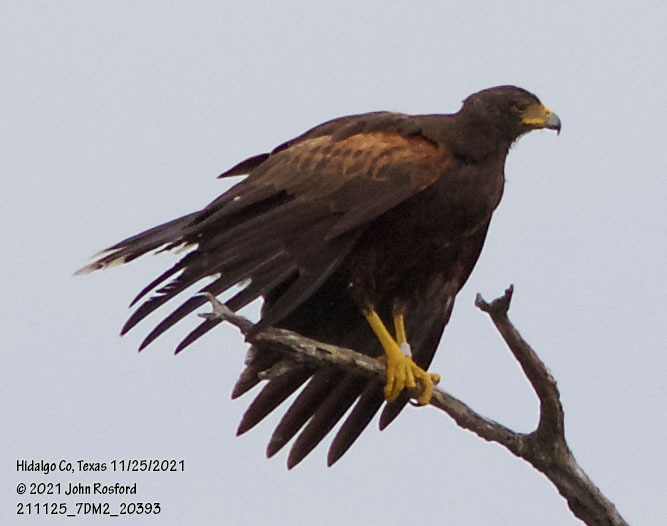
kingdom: Animalia
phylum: Chordata
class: Aves
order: Accipitriformes
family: Accipitridae
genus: Parabuteo
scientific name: Parabuteo unicinctus
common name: Harris's hawk
